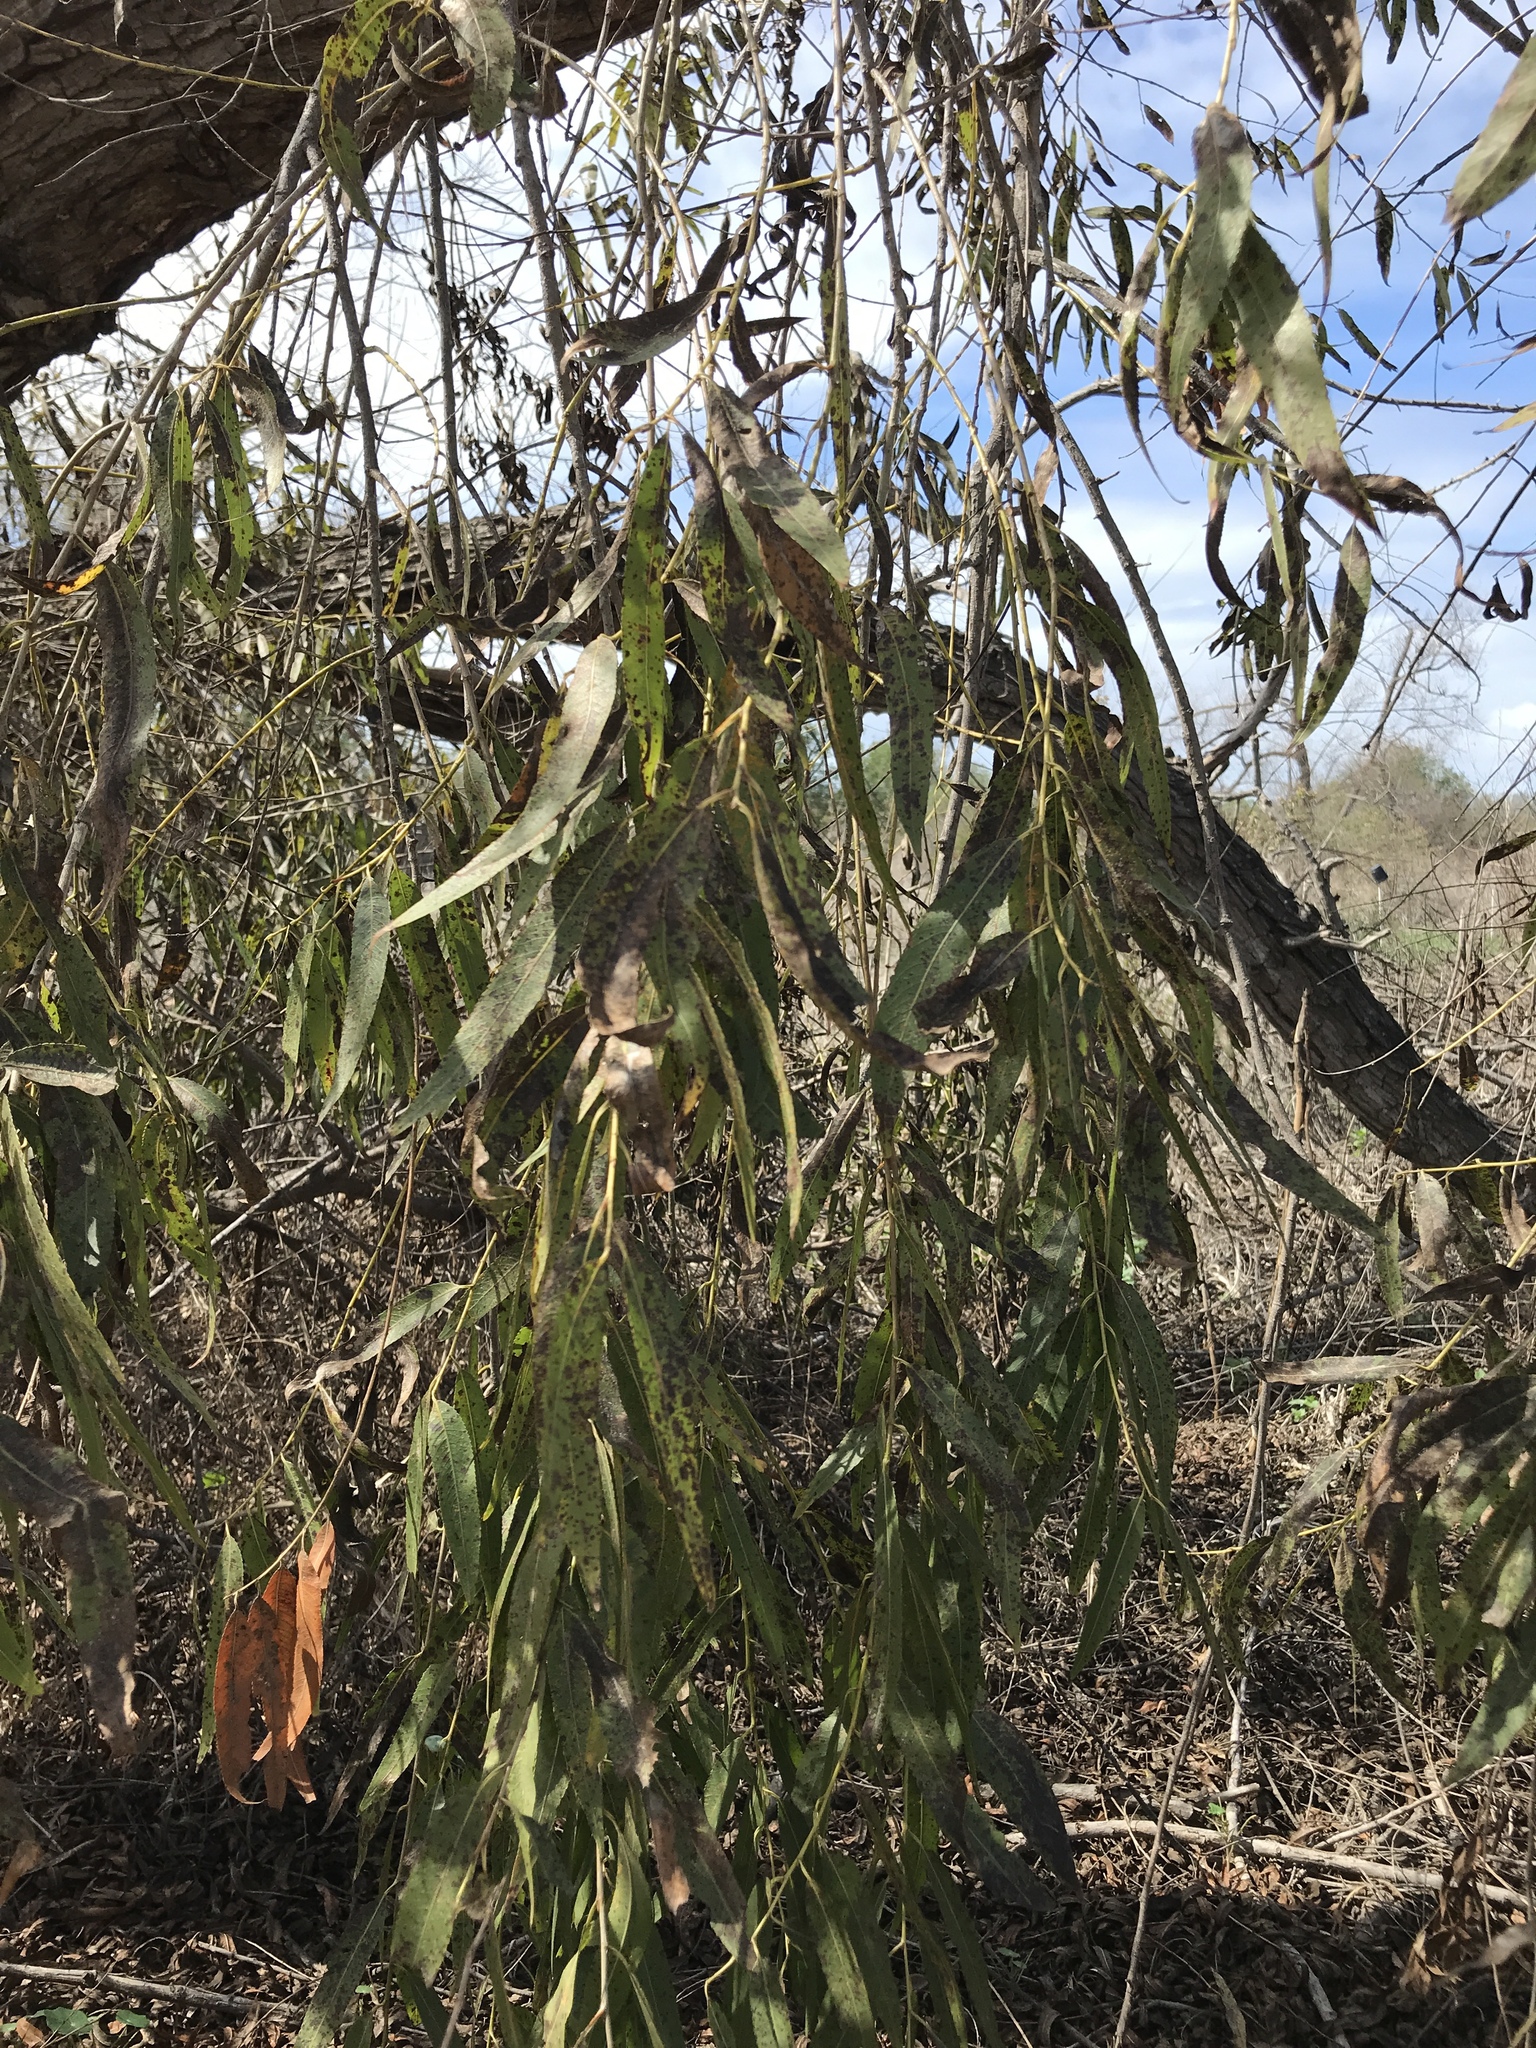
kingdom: Plantae
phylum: Tracheophyta
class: Magnoliopsida
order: Malpighiales
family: Salicaceae
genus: Salix
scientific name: Salix gooddingii
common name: Goodding's willow
